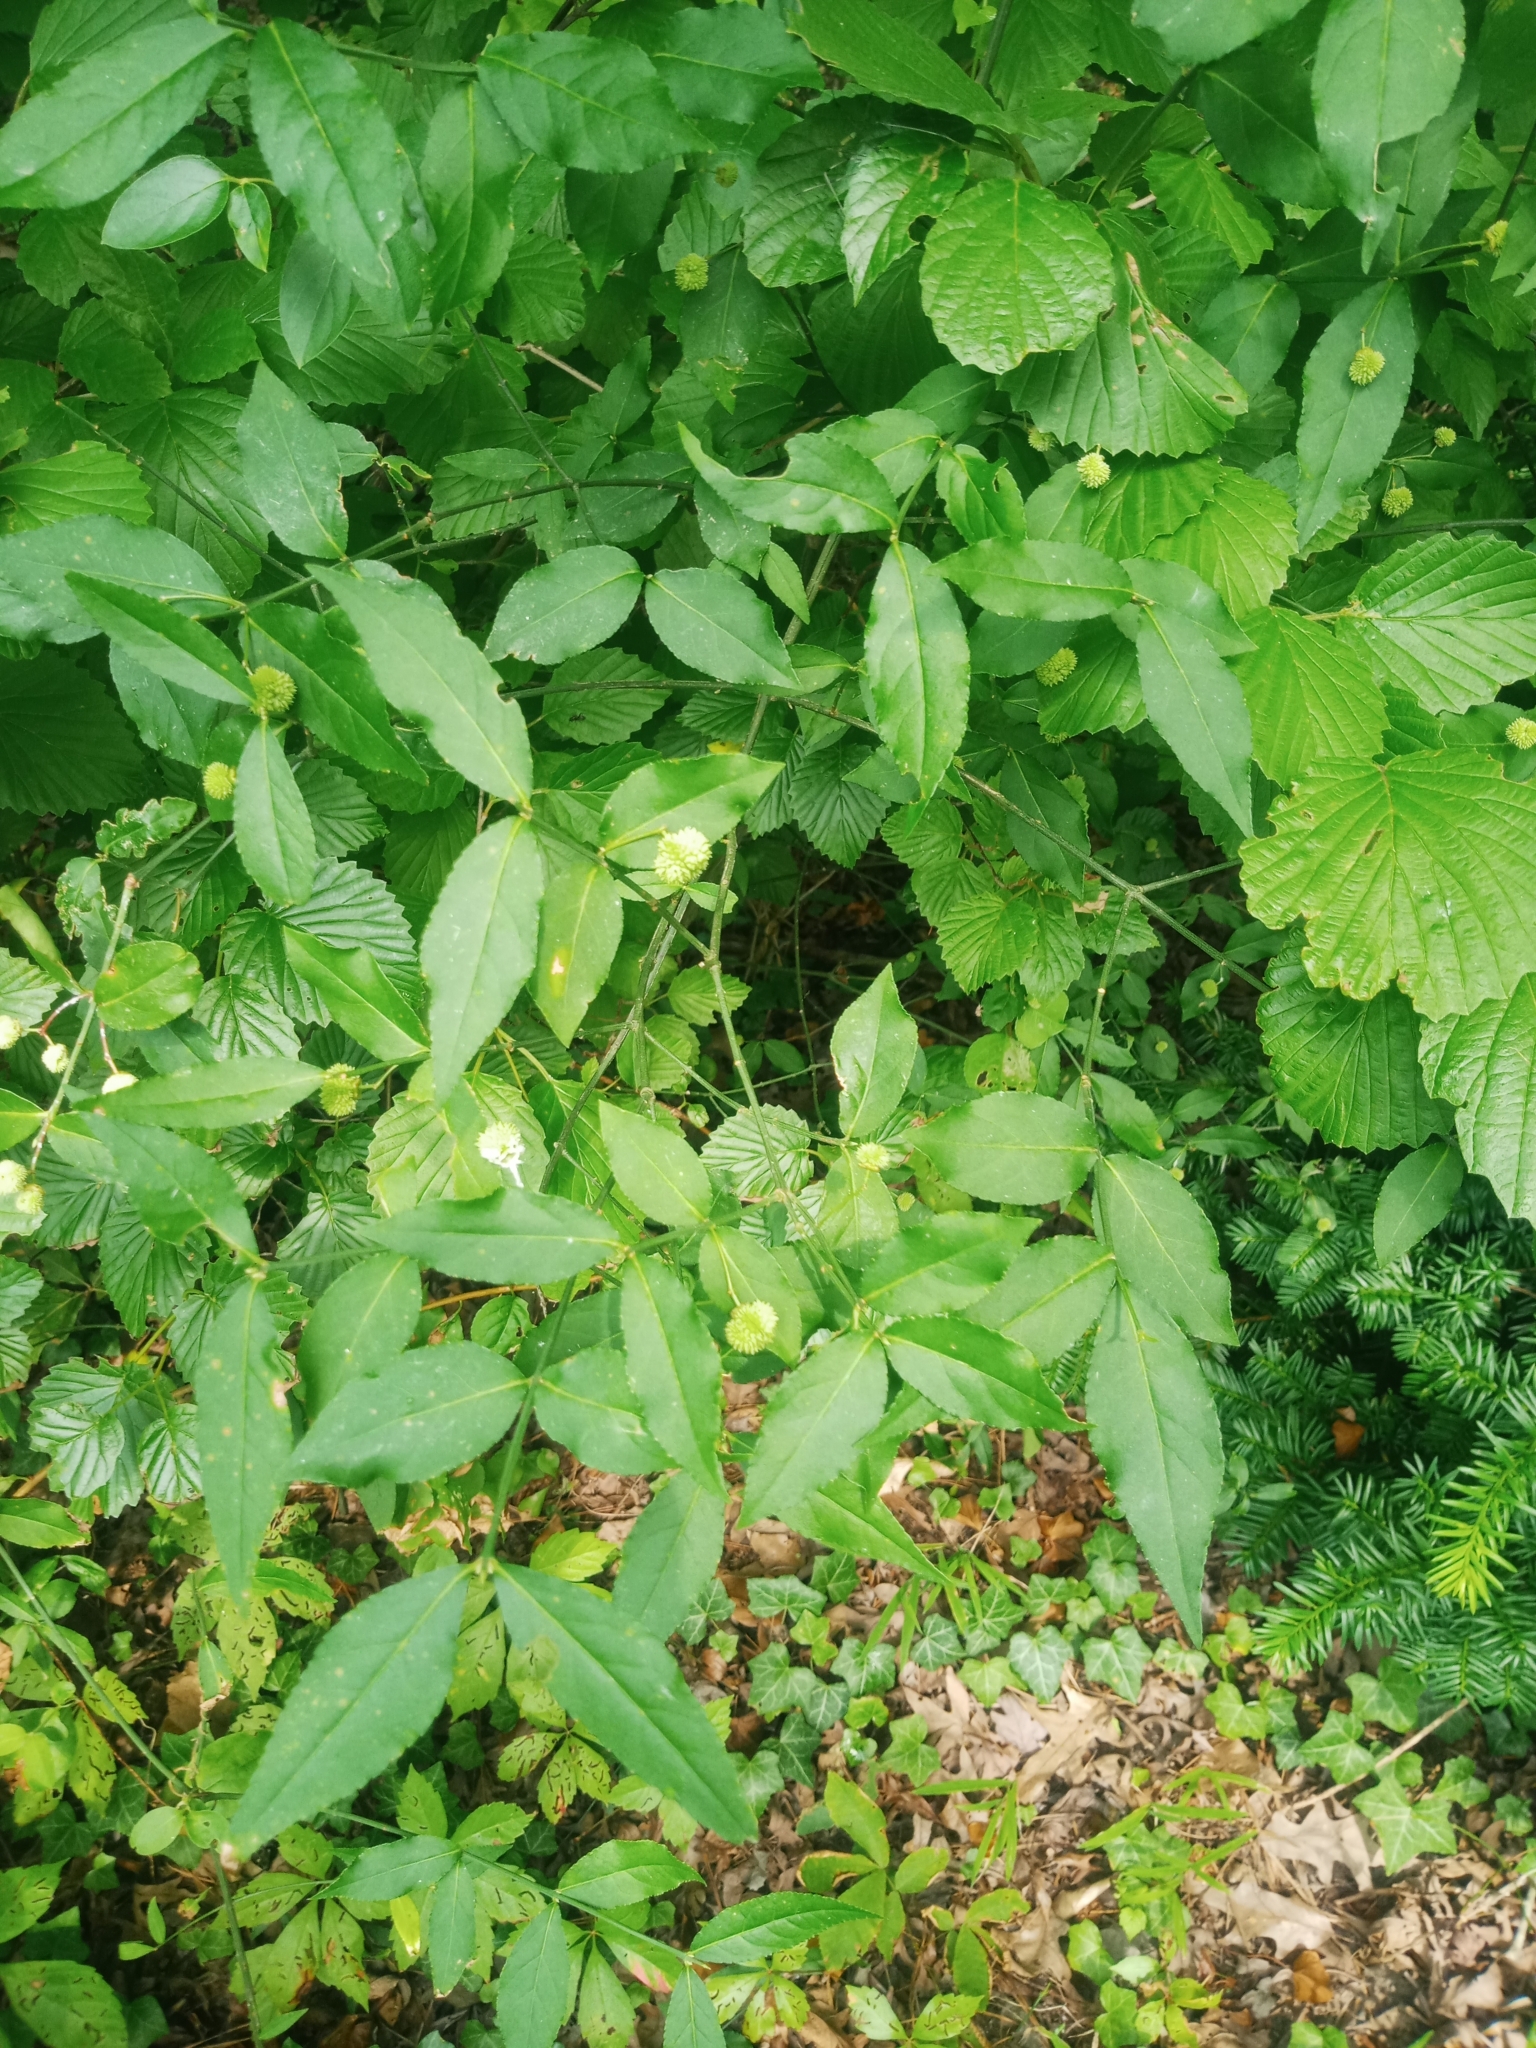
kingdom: Plantae
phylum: Tracheophyta
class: Magnoliopsida
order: Celastrales
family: Celastraceae
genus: Euonymus
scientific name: Euonymus americanus
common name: Bursting-heart
